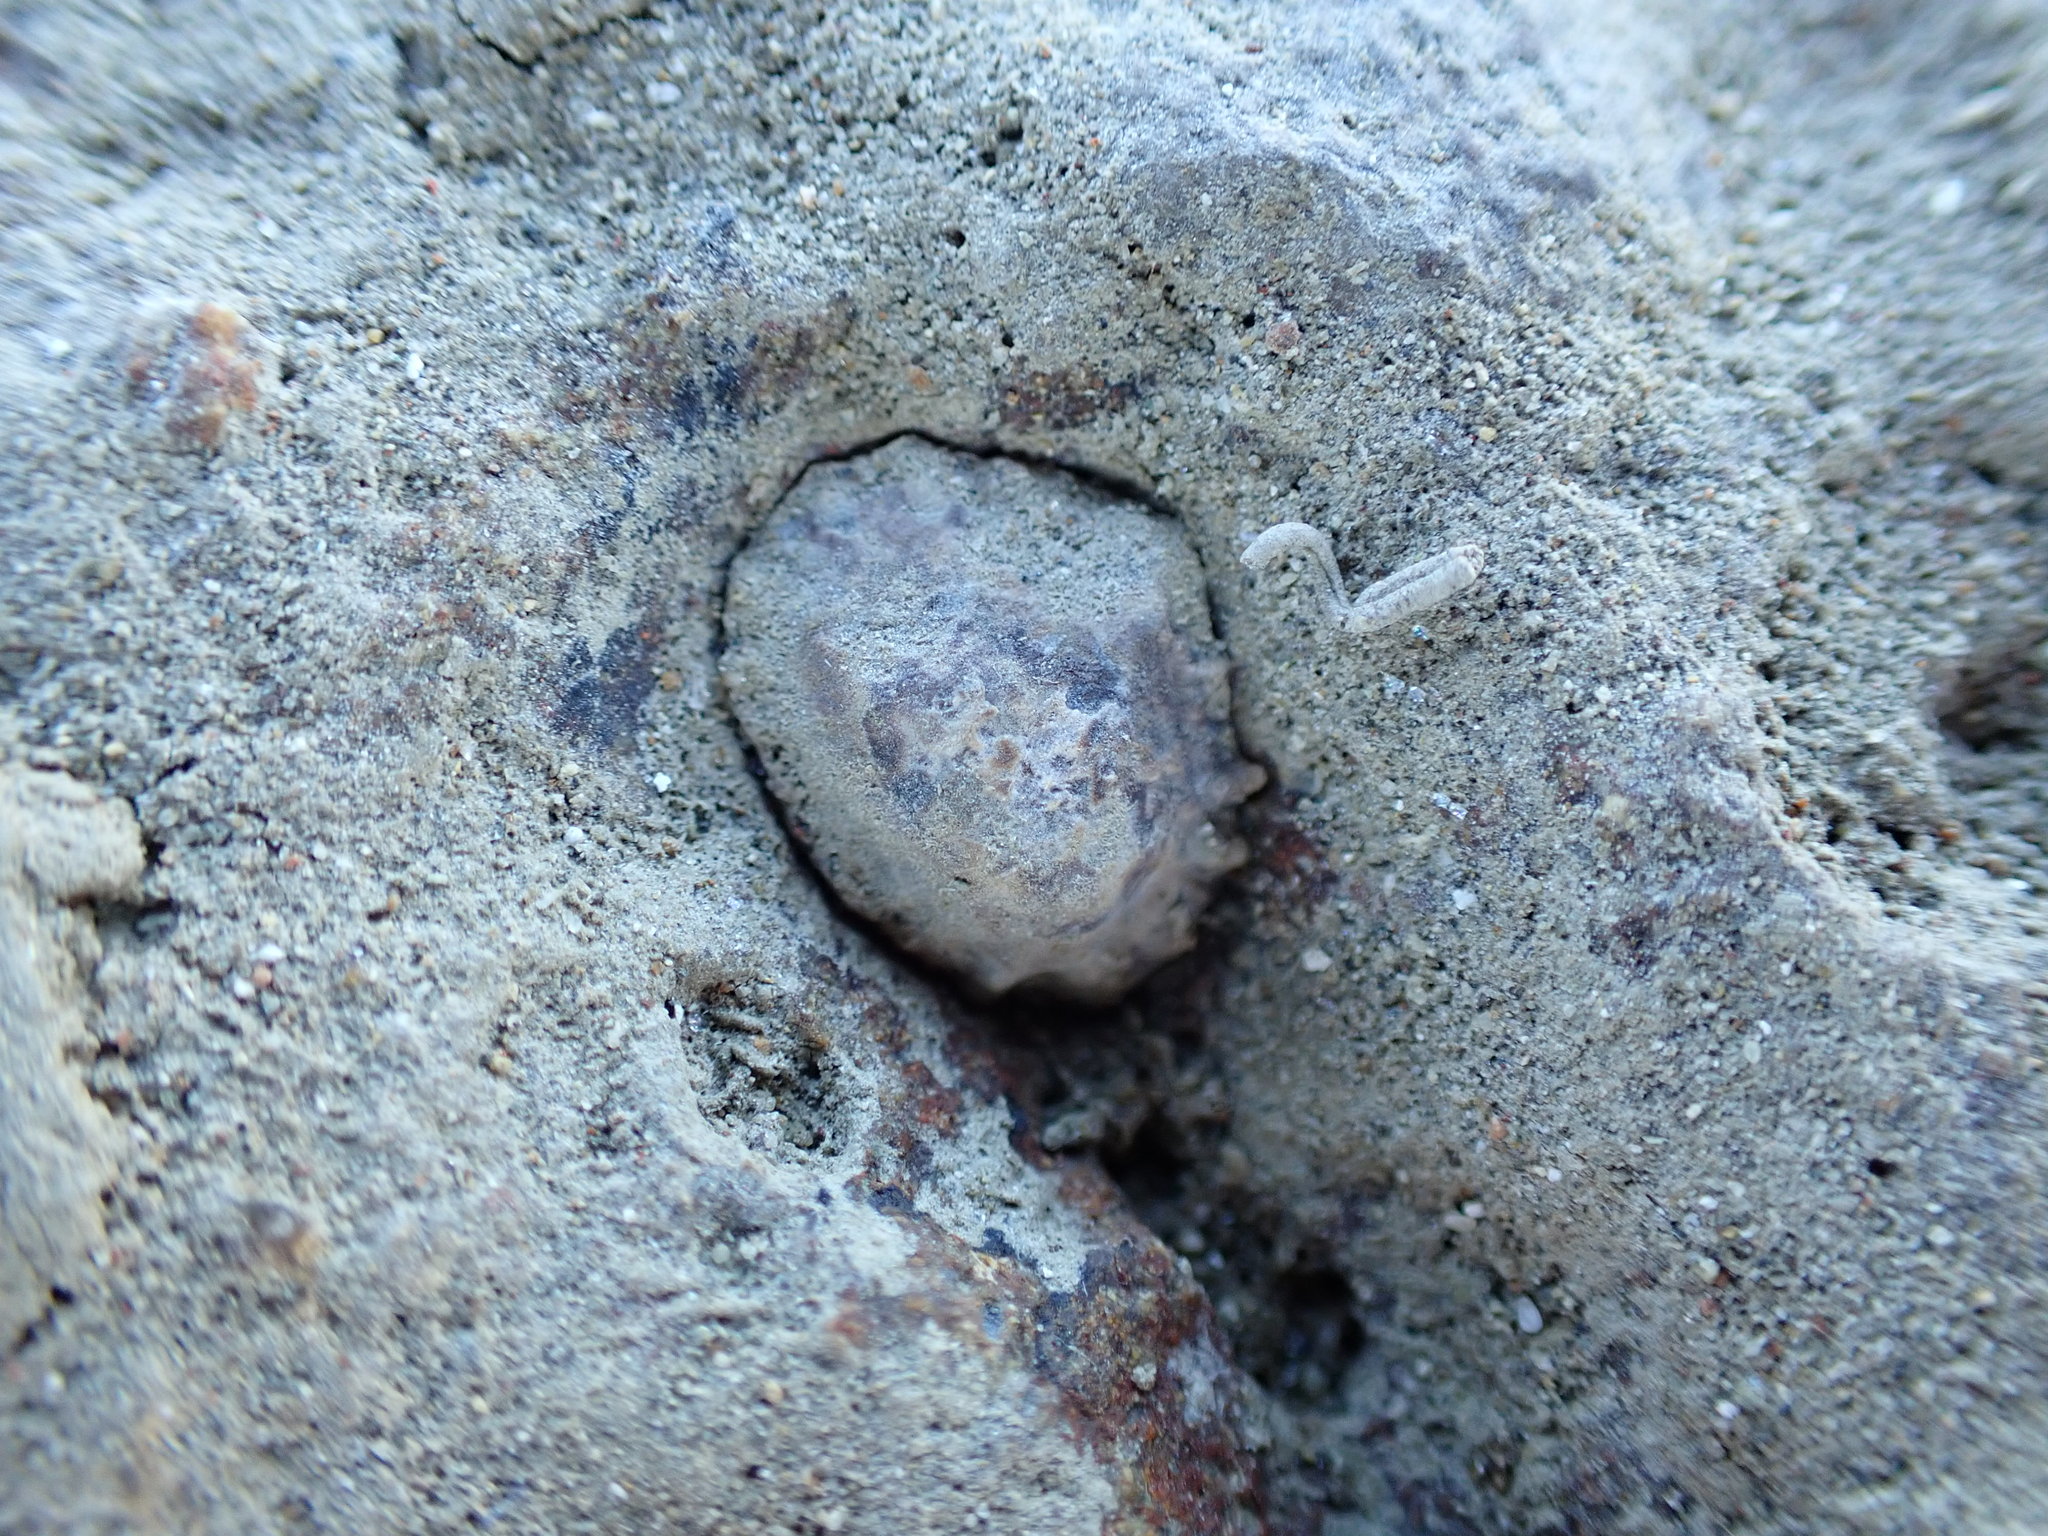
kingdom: Animalia
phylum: Mollusca
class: Gastropoda
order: Siphonariida
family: Siphonariidae
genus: Siphonaria
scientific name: Siphonaria australis
